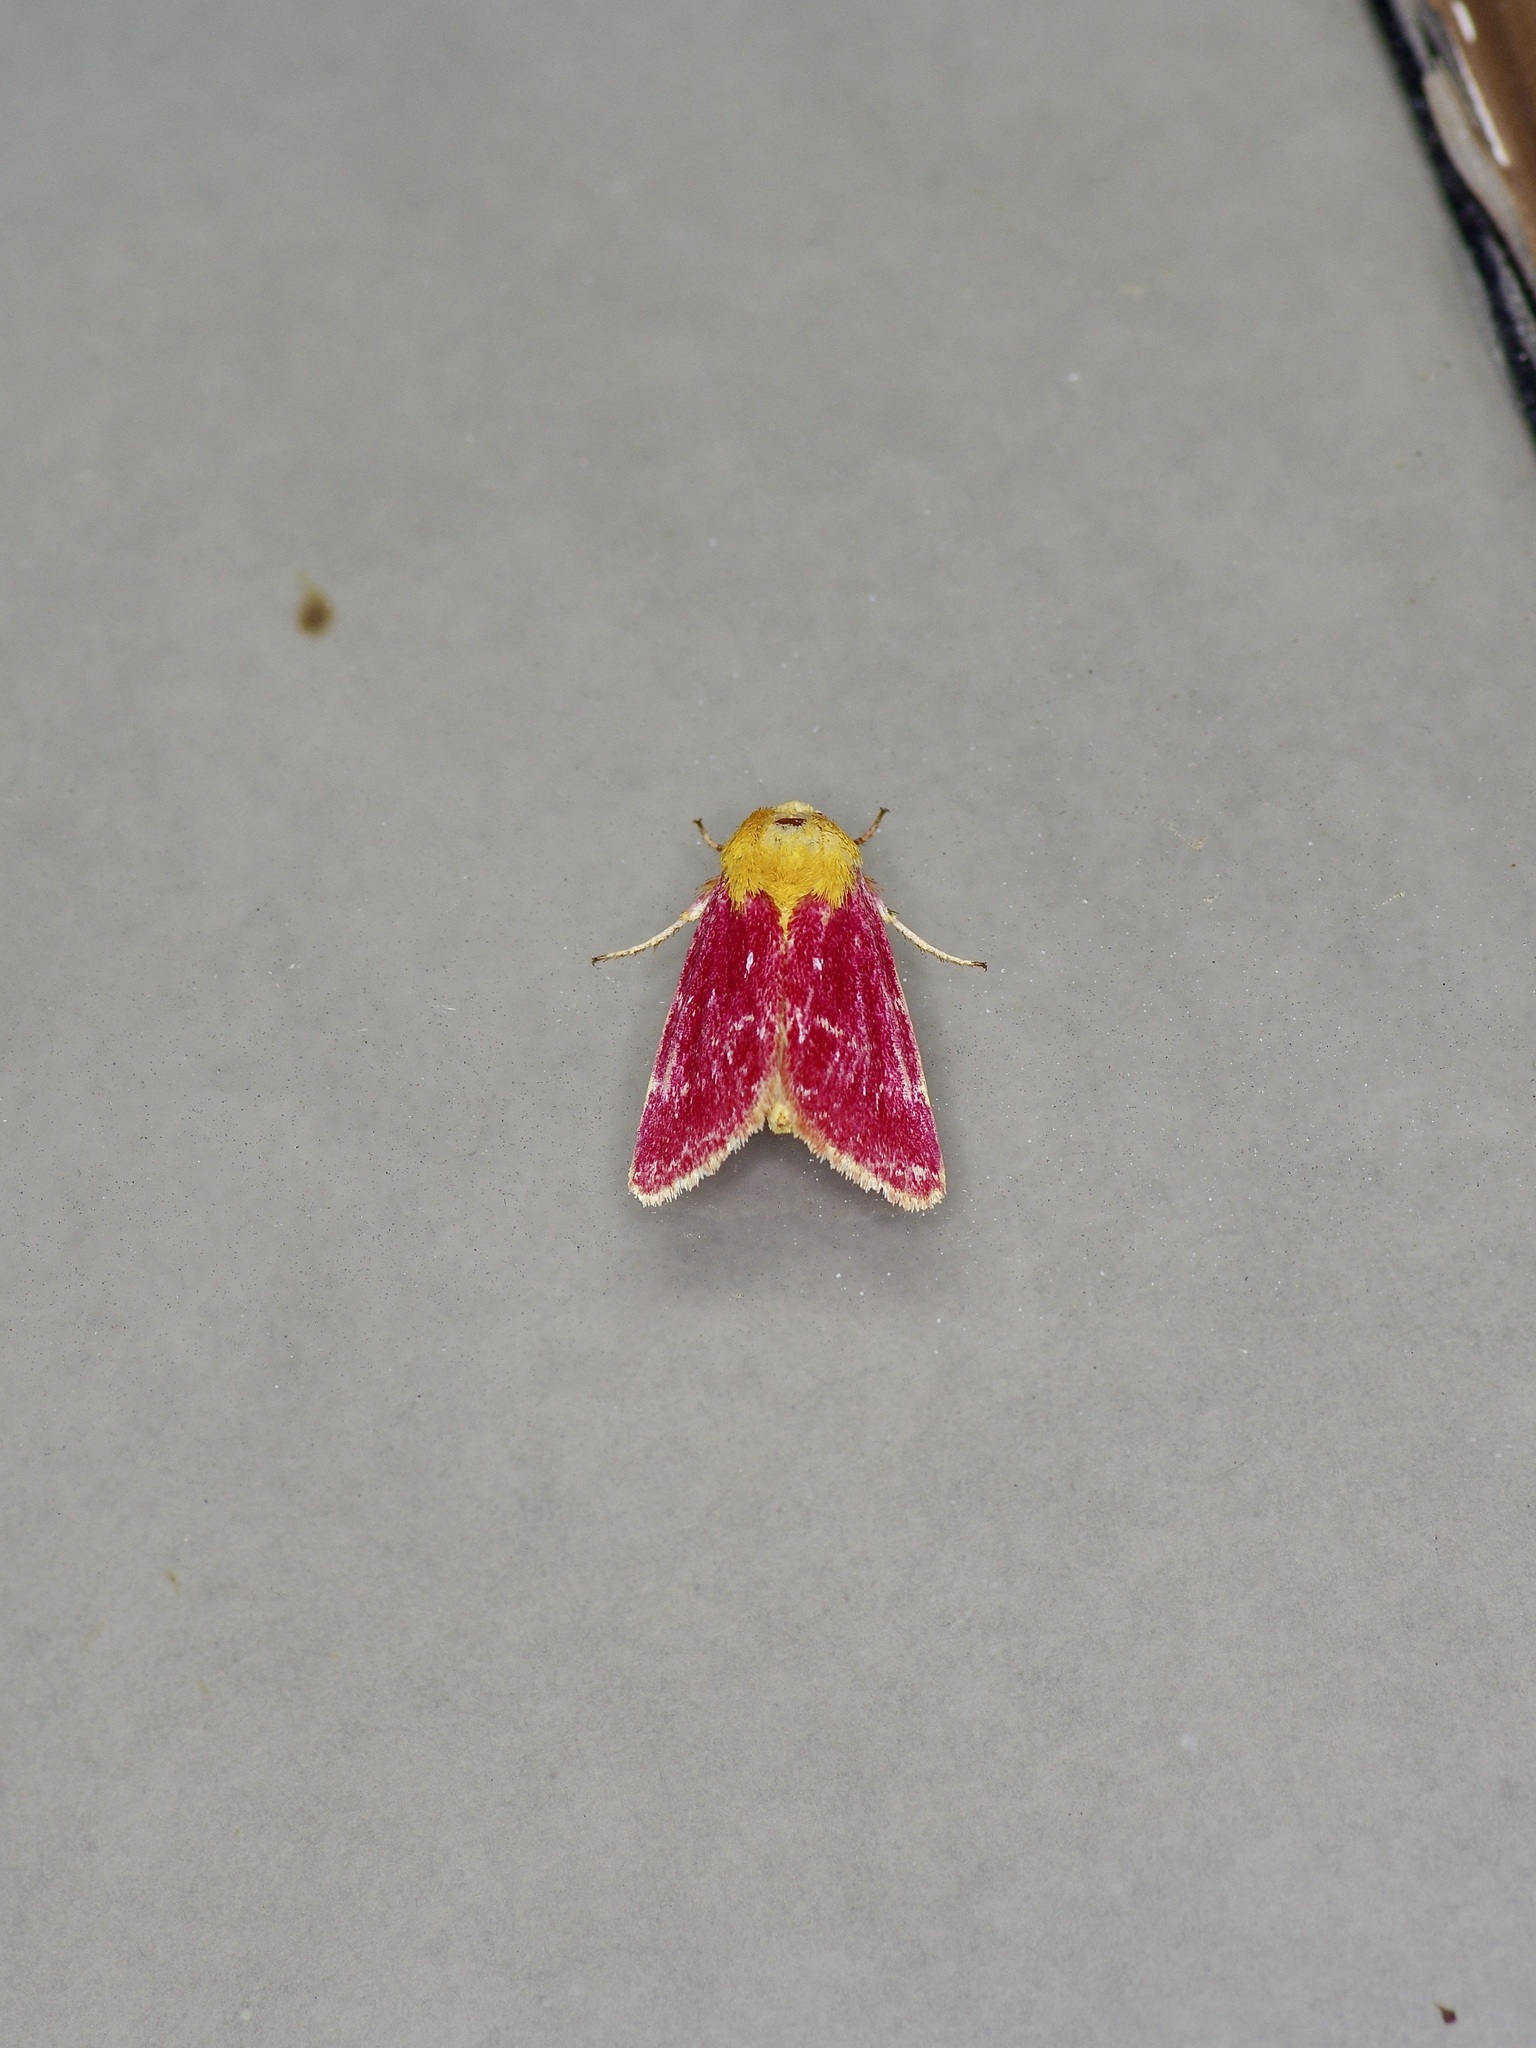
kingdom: Animalia
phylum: Arthropoda
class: Insecta
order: Lepidoptera
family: Noctuidae
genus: Schinia
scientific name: Schinia volupia
